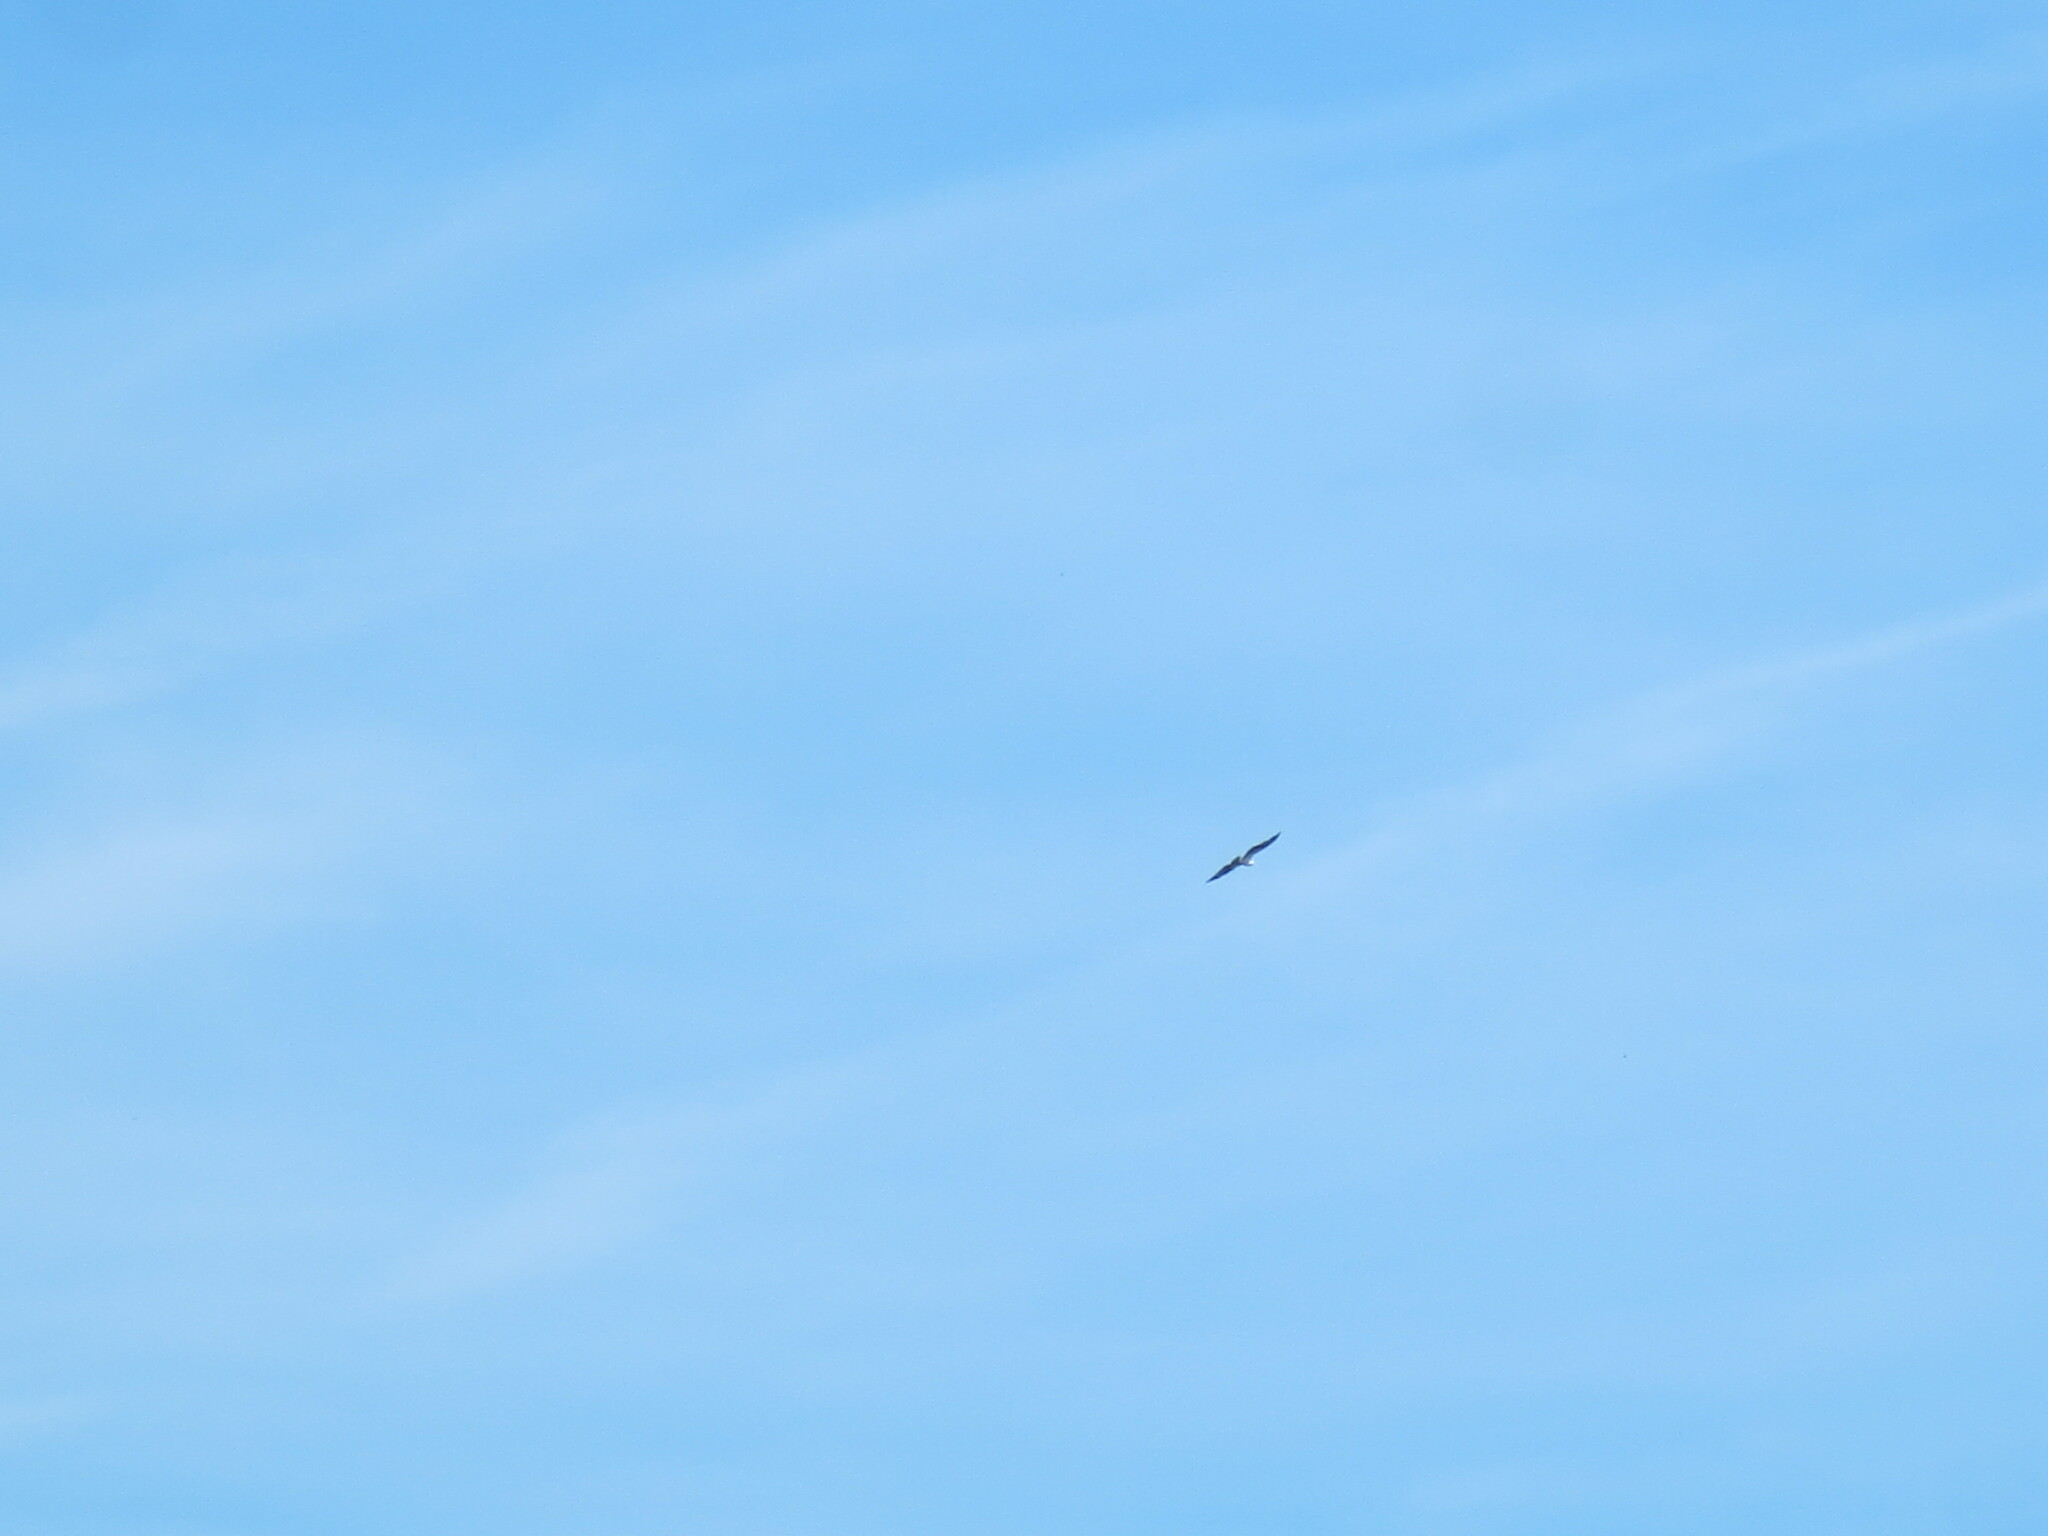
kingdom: Animalia
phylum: Chordata
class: Aves
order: Accipitriformes
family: Pandionidae
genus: Pandion
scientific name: Pandion haliaetus
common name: Osprey
